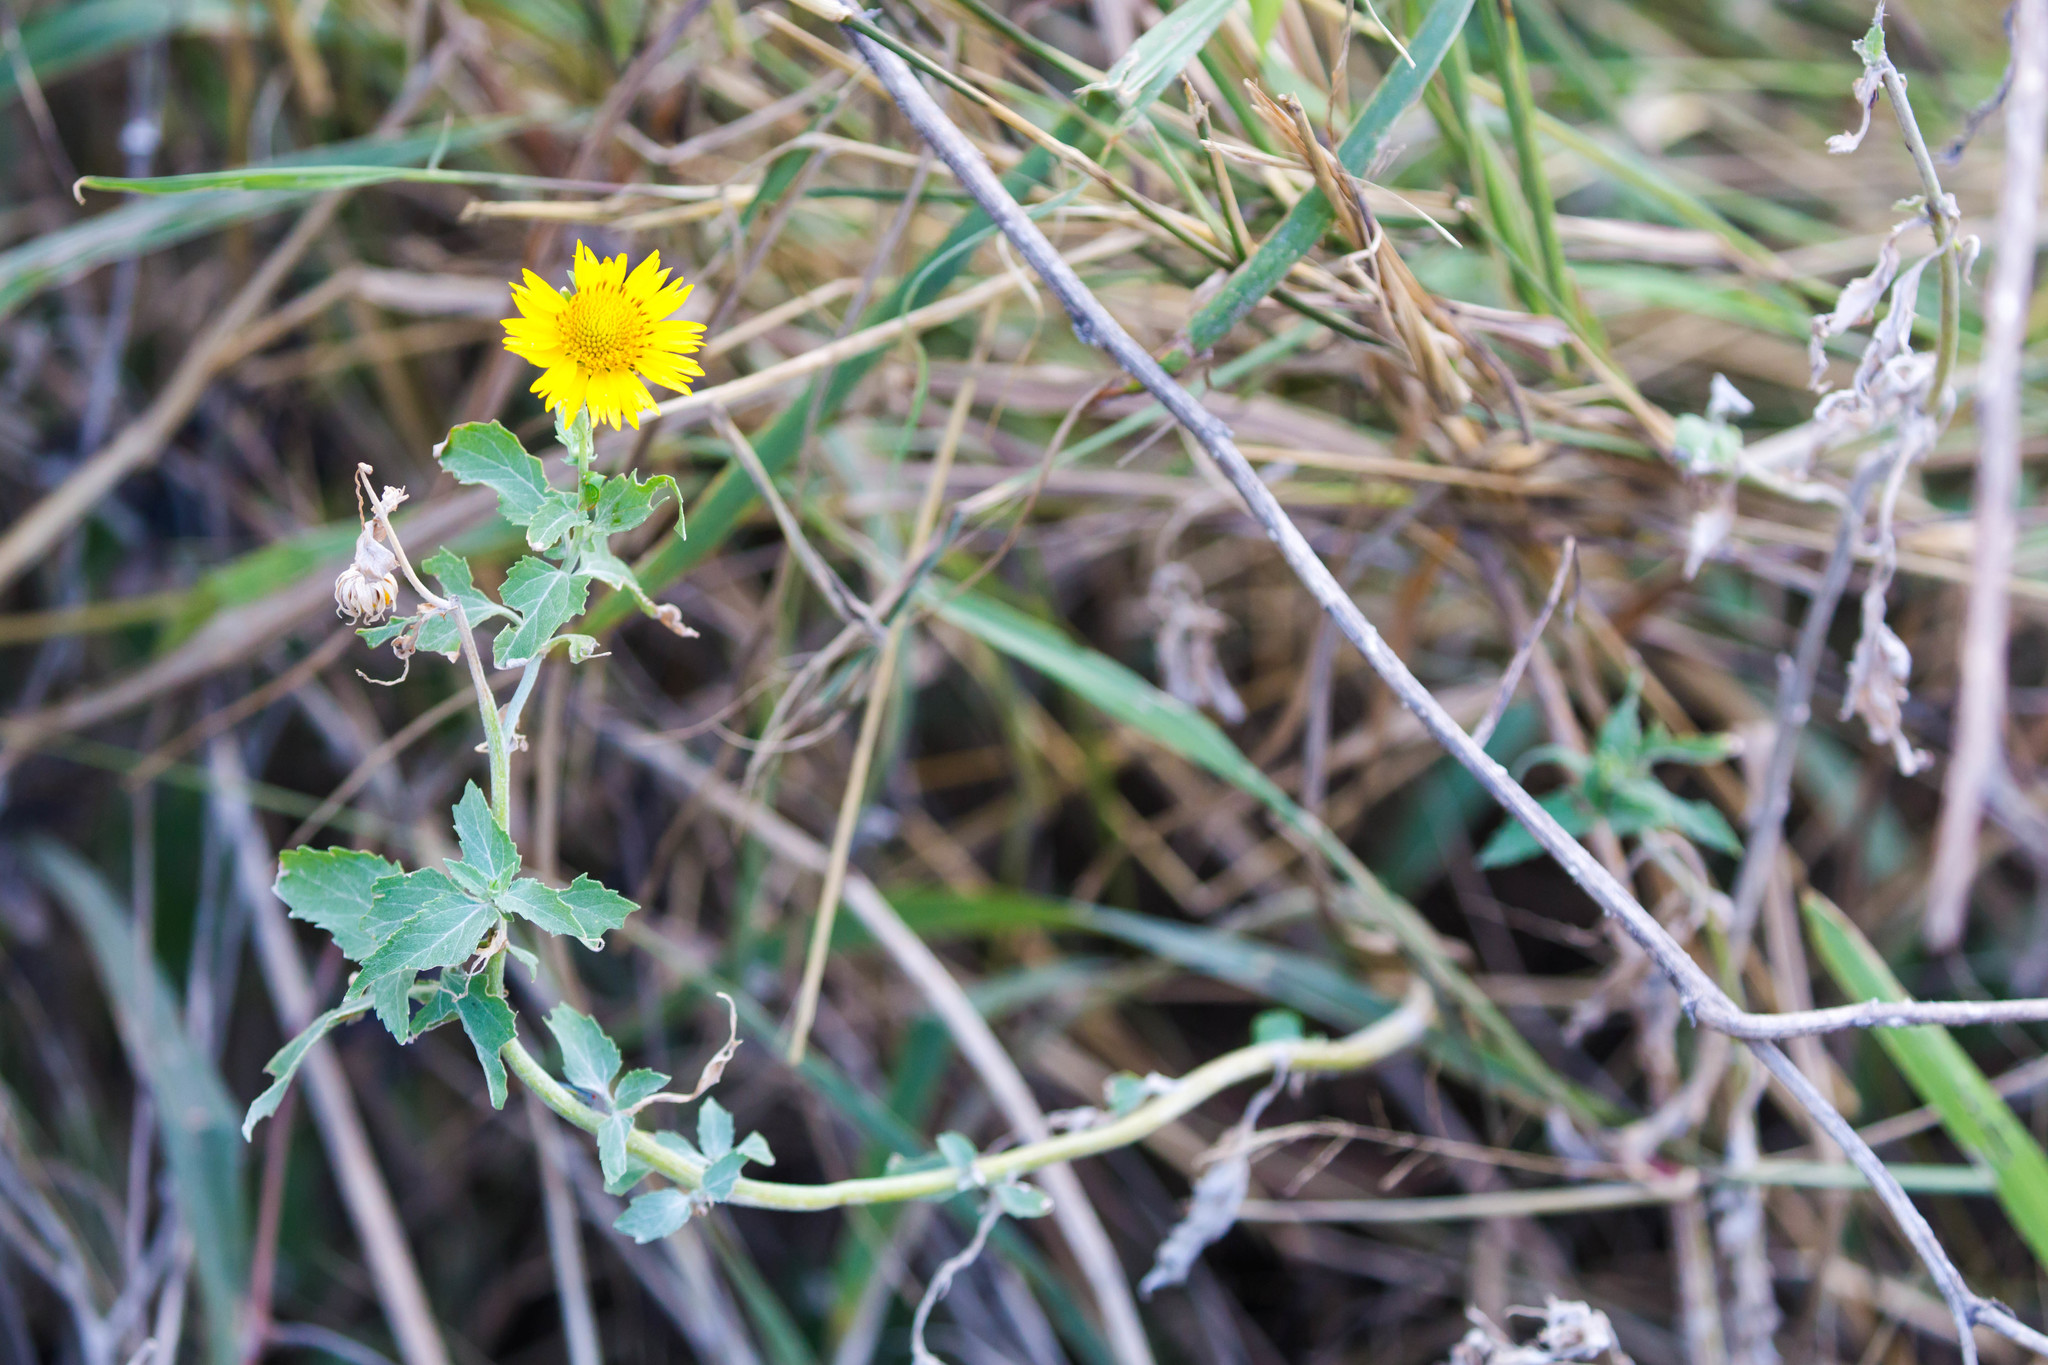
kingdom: Plantae
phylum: Tracheophyta
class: Magnoliopsida
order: Asterales
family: Asteraceae
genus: Verbesina
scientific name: Verbesina encelioides
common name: Golden crownbeard
